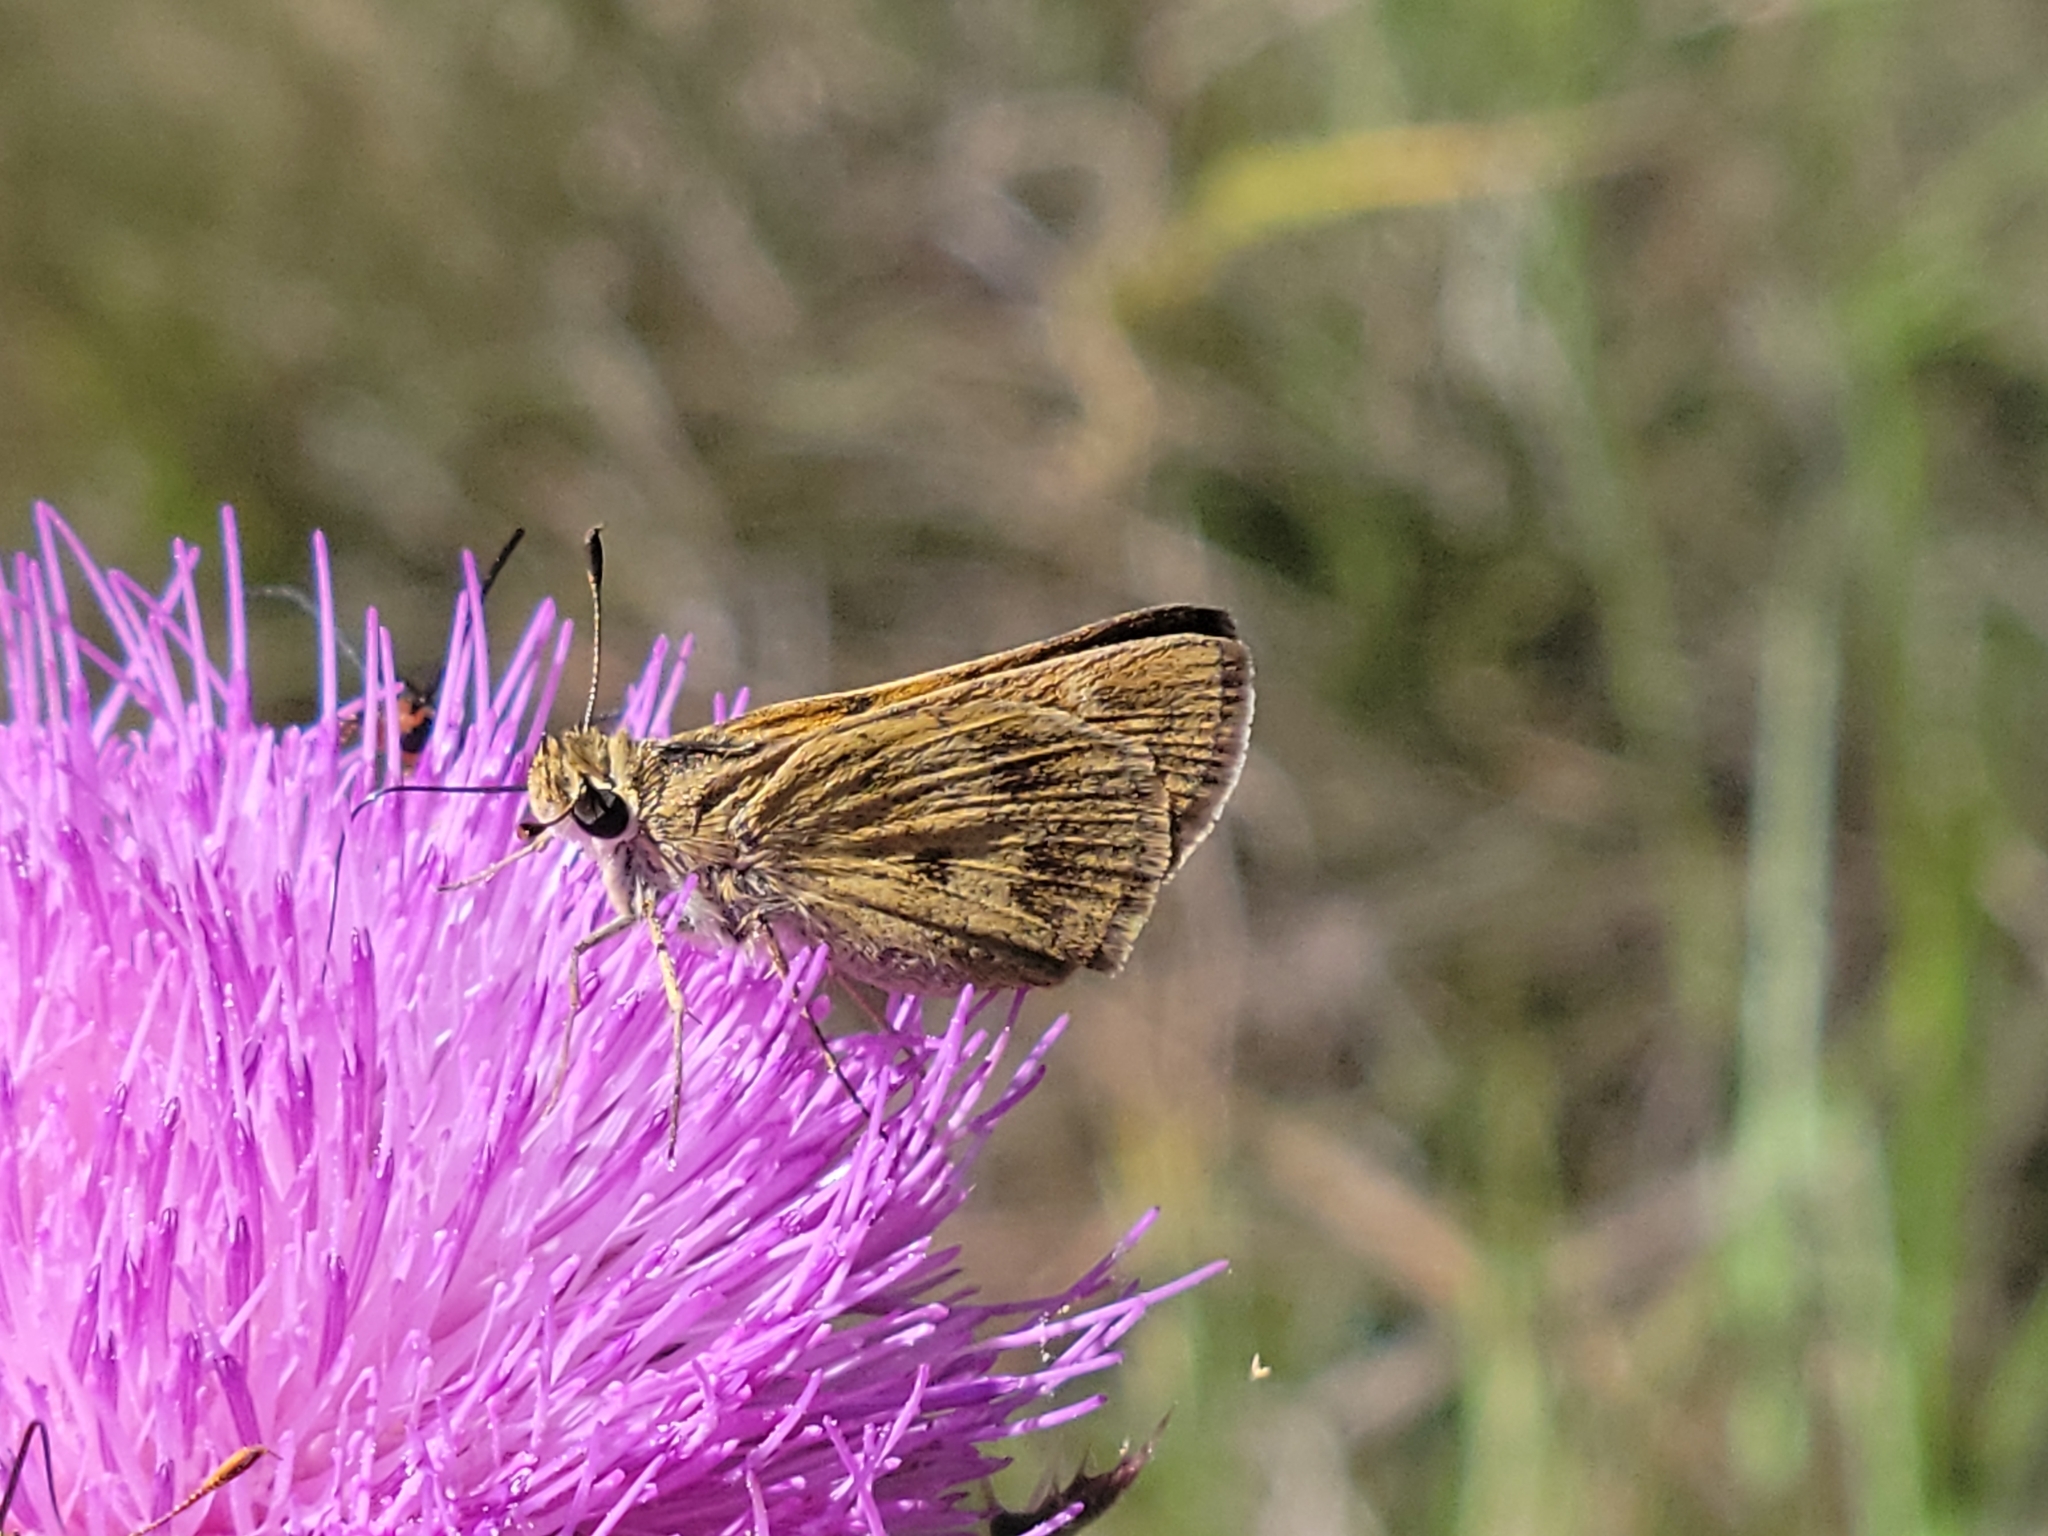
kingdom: Animalia
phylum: Arthropoda
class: Insecta
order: Lepidoptera
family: Hesperiidae
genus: Polites
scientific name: Polites vibex
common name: Whirlabout
